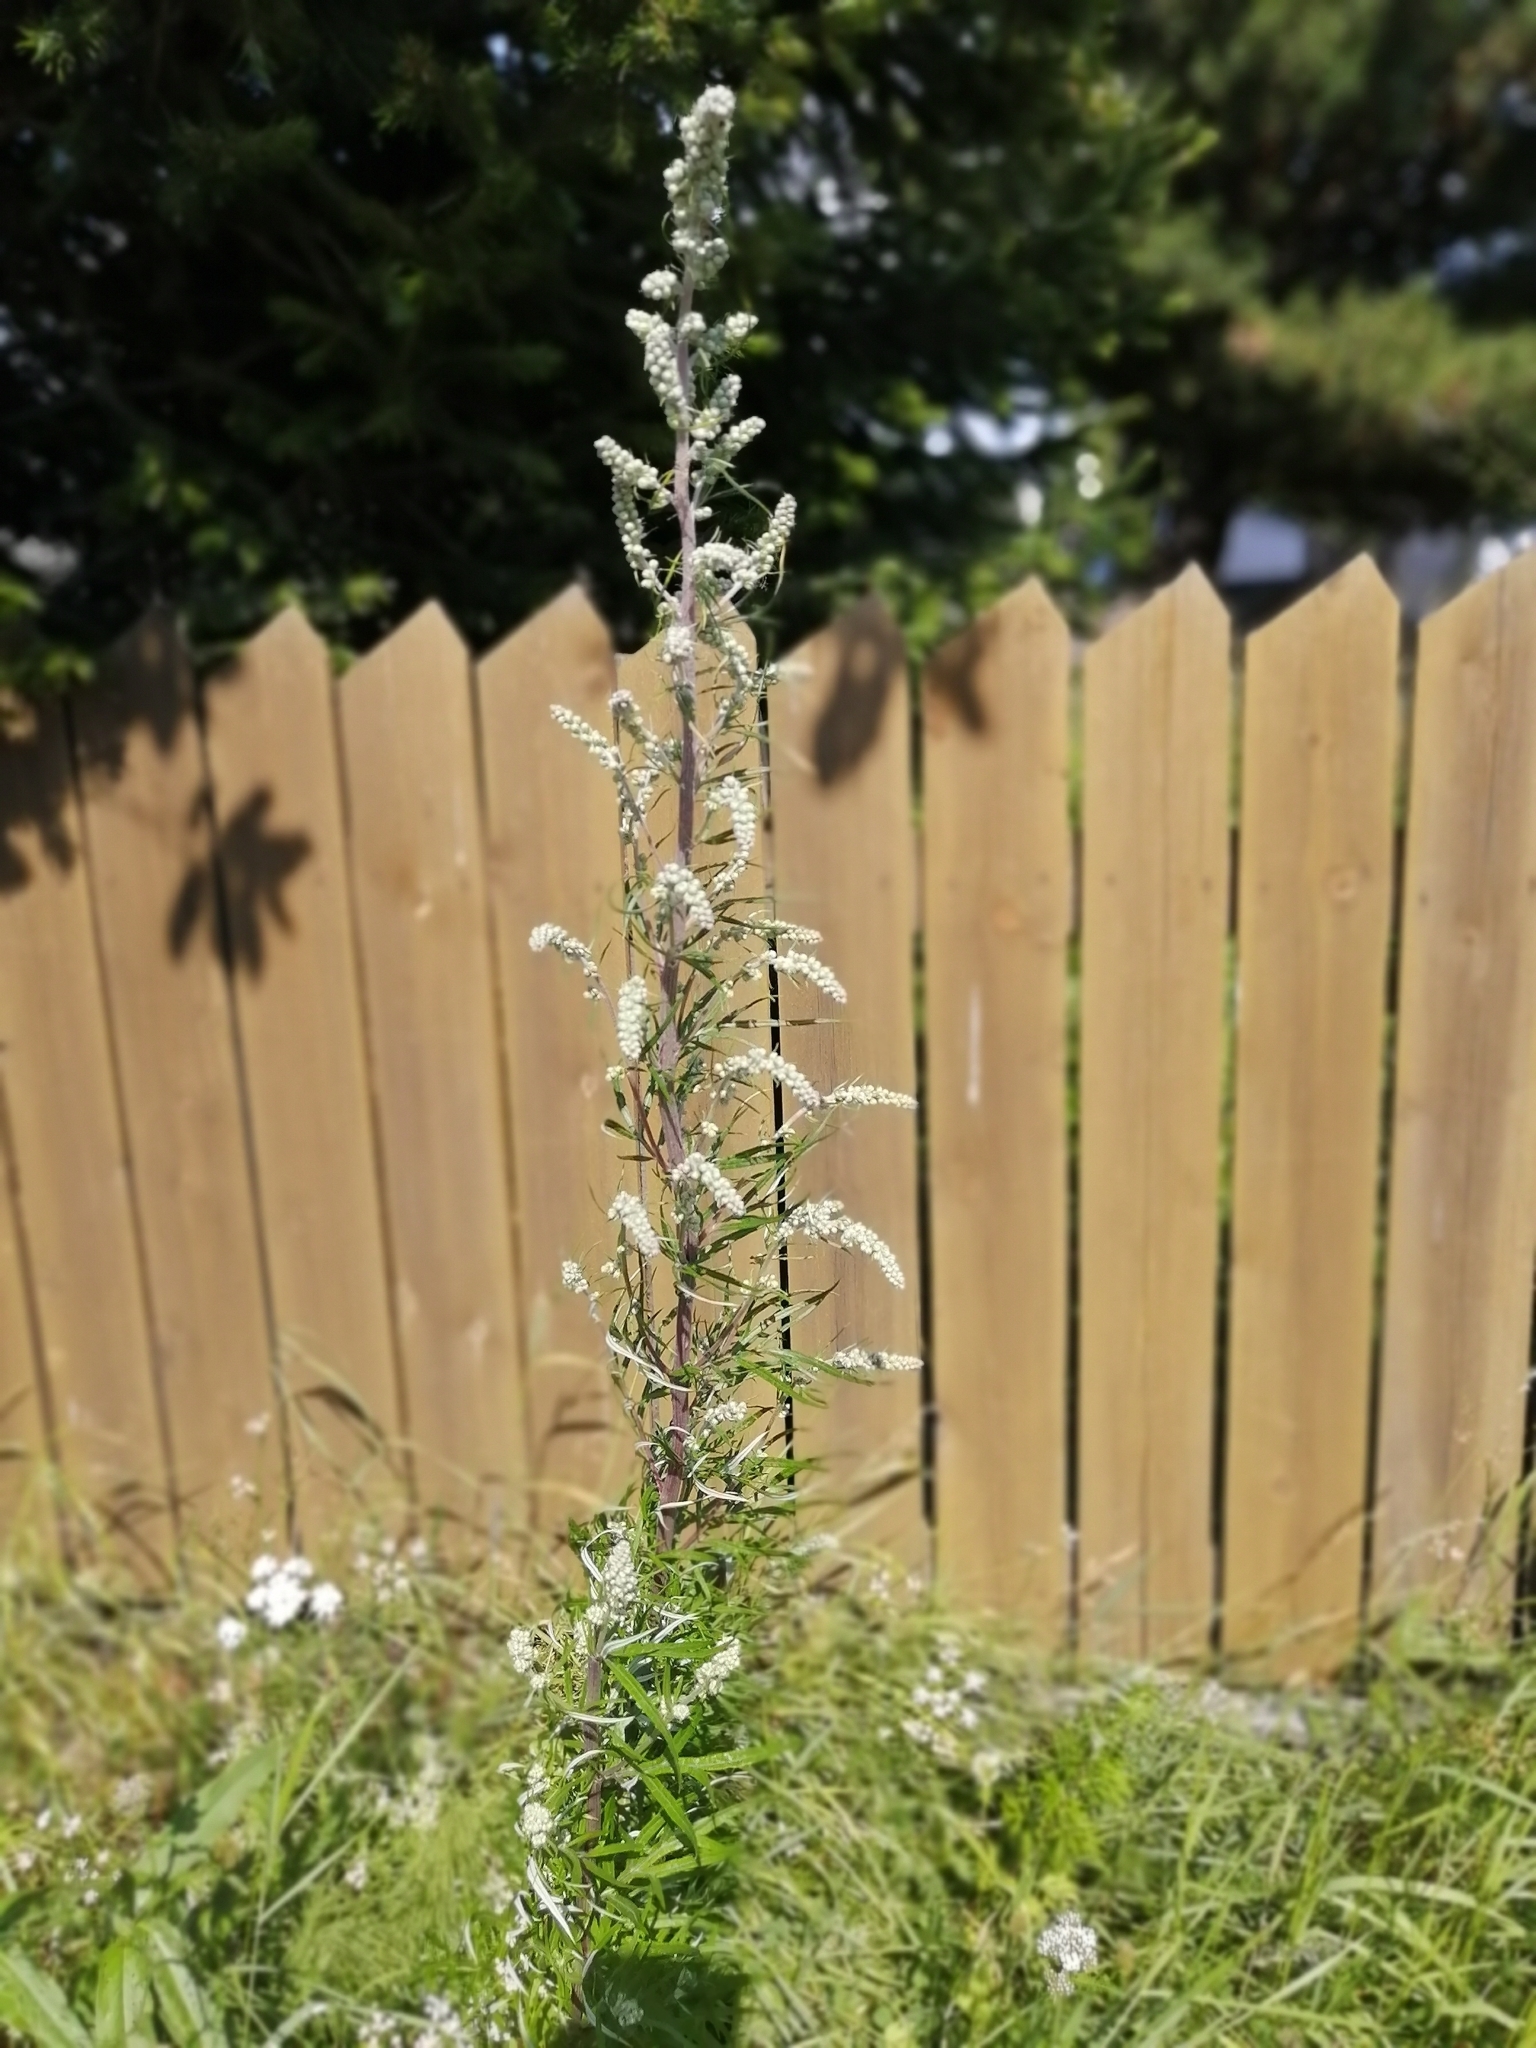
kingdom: Plantae
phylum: Tracheophyta
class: Magnoliopsida
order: Asterales
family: Asteraceae
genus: Artemisia
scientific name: Artemisia vulgaris
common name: Mugwort
